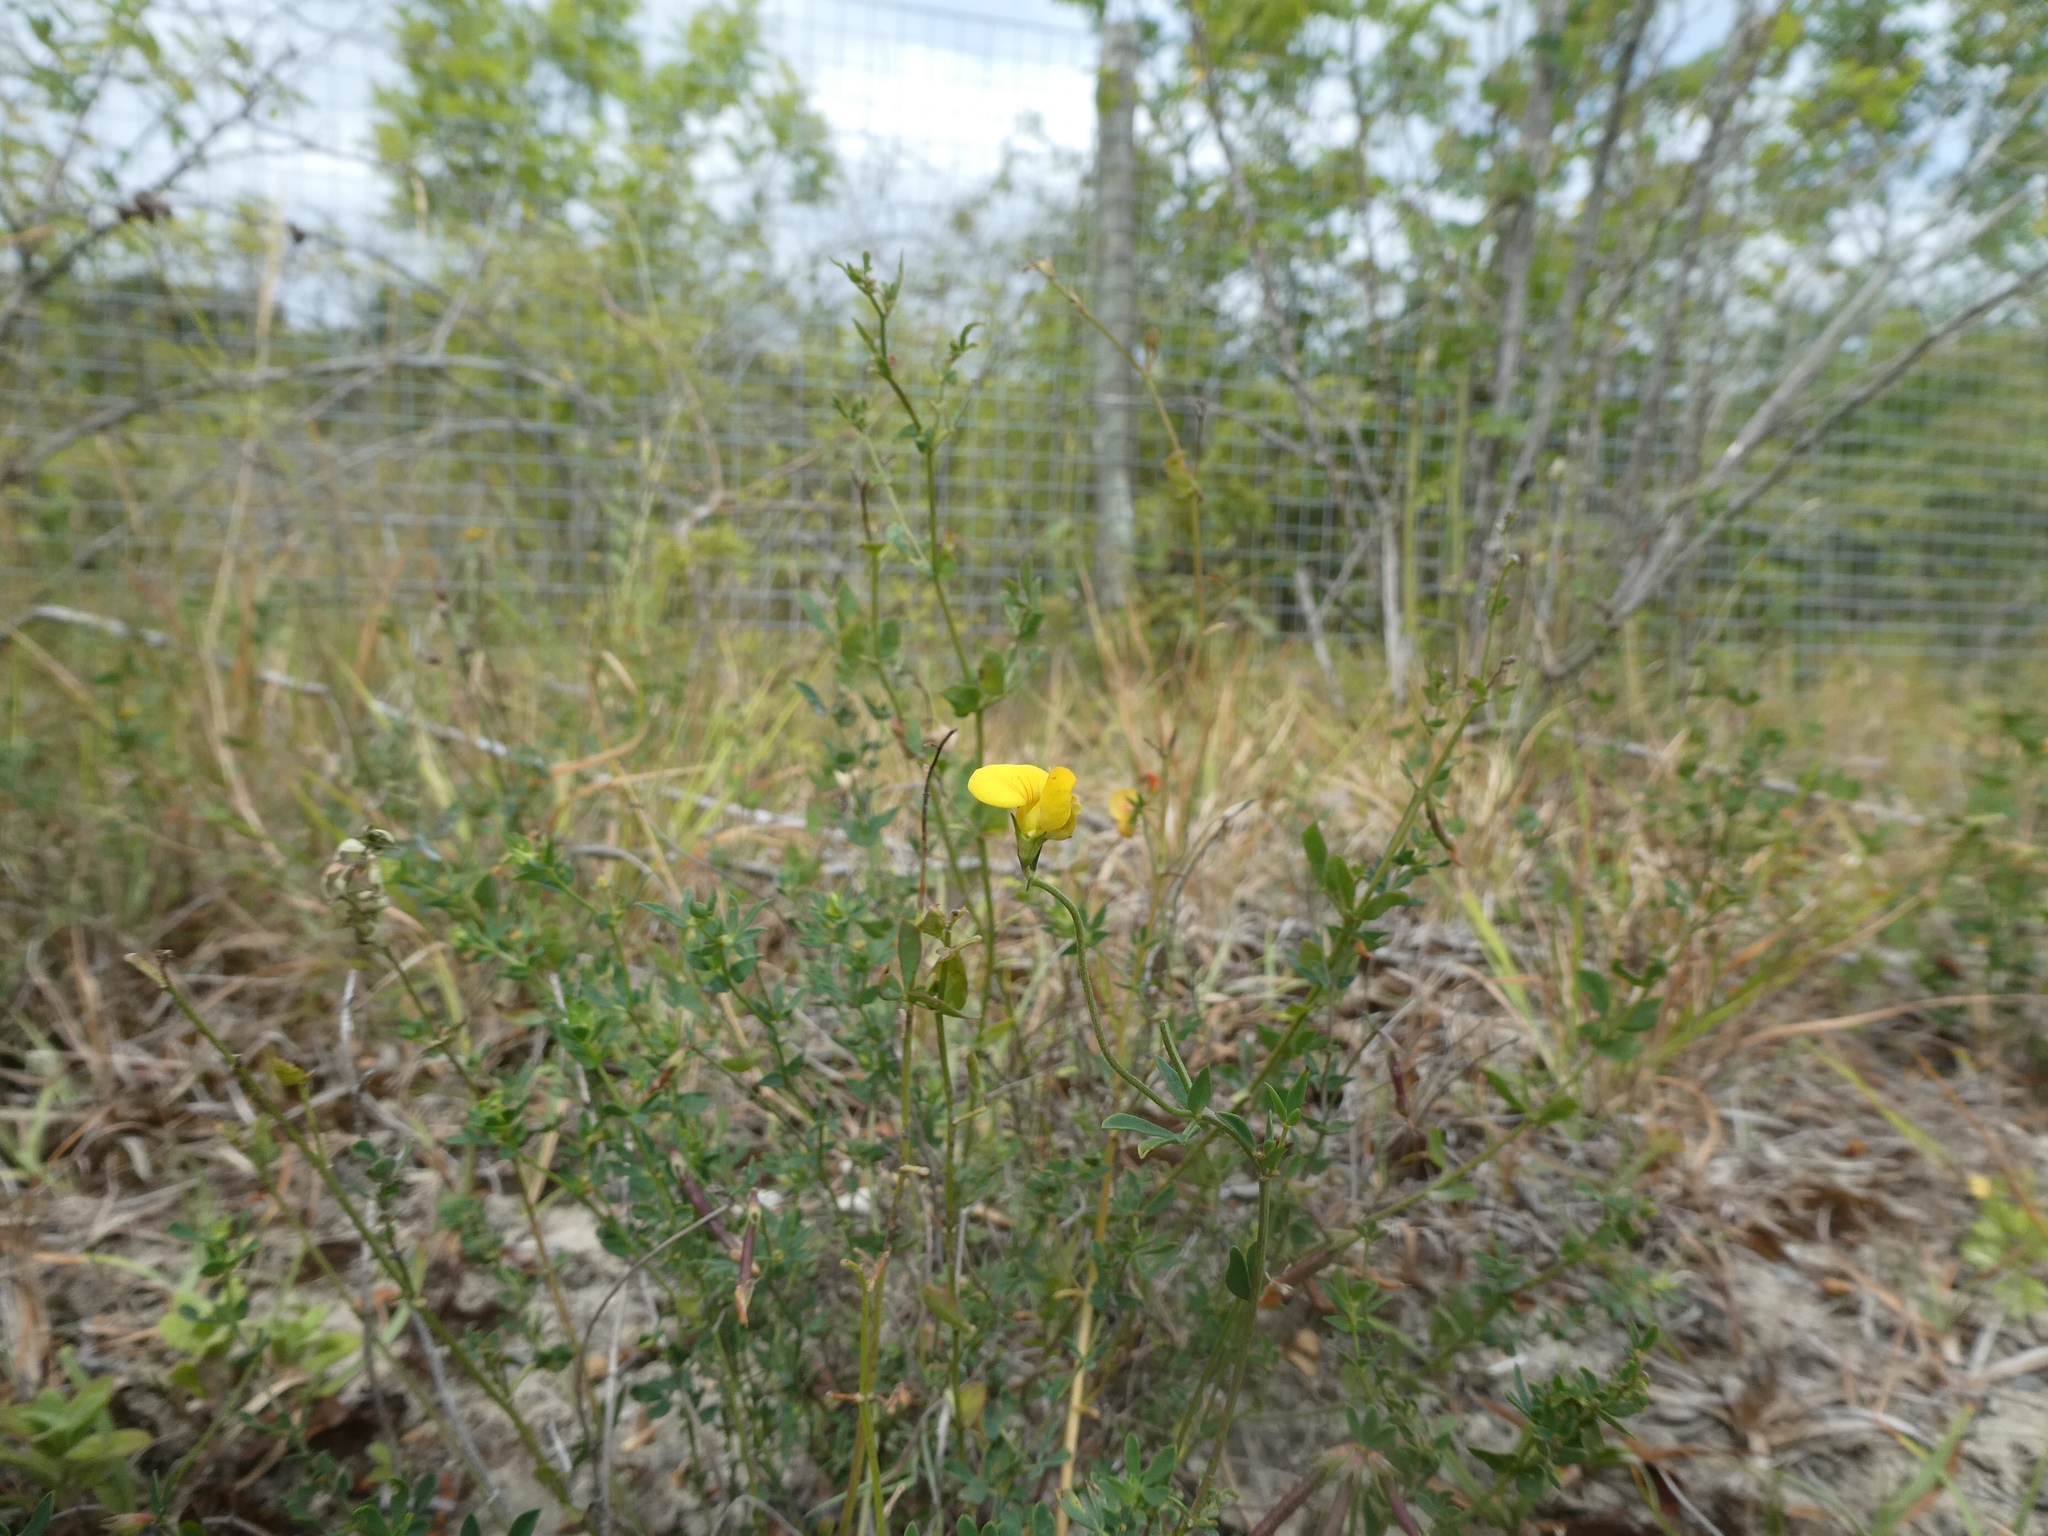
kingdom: Plantae
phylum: Tracheophyta
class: Magnoliopsida
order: Fabales
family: Fabaceae
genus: Lotus
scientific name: Lotus corniculatus
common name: Common bird's-foot-trefoil
